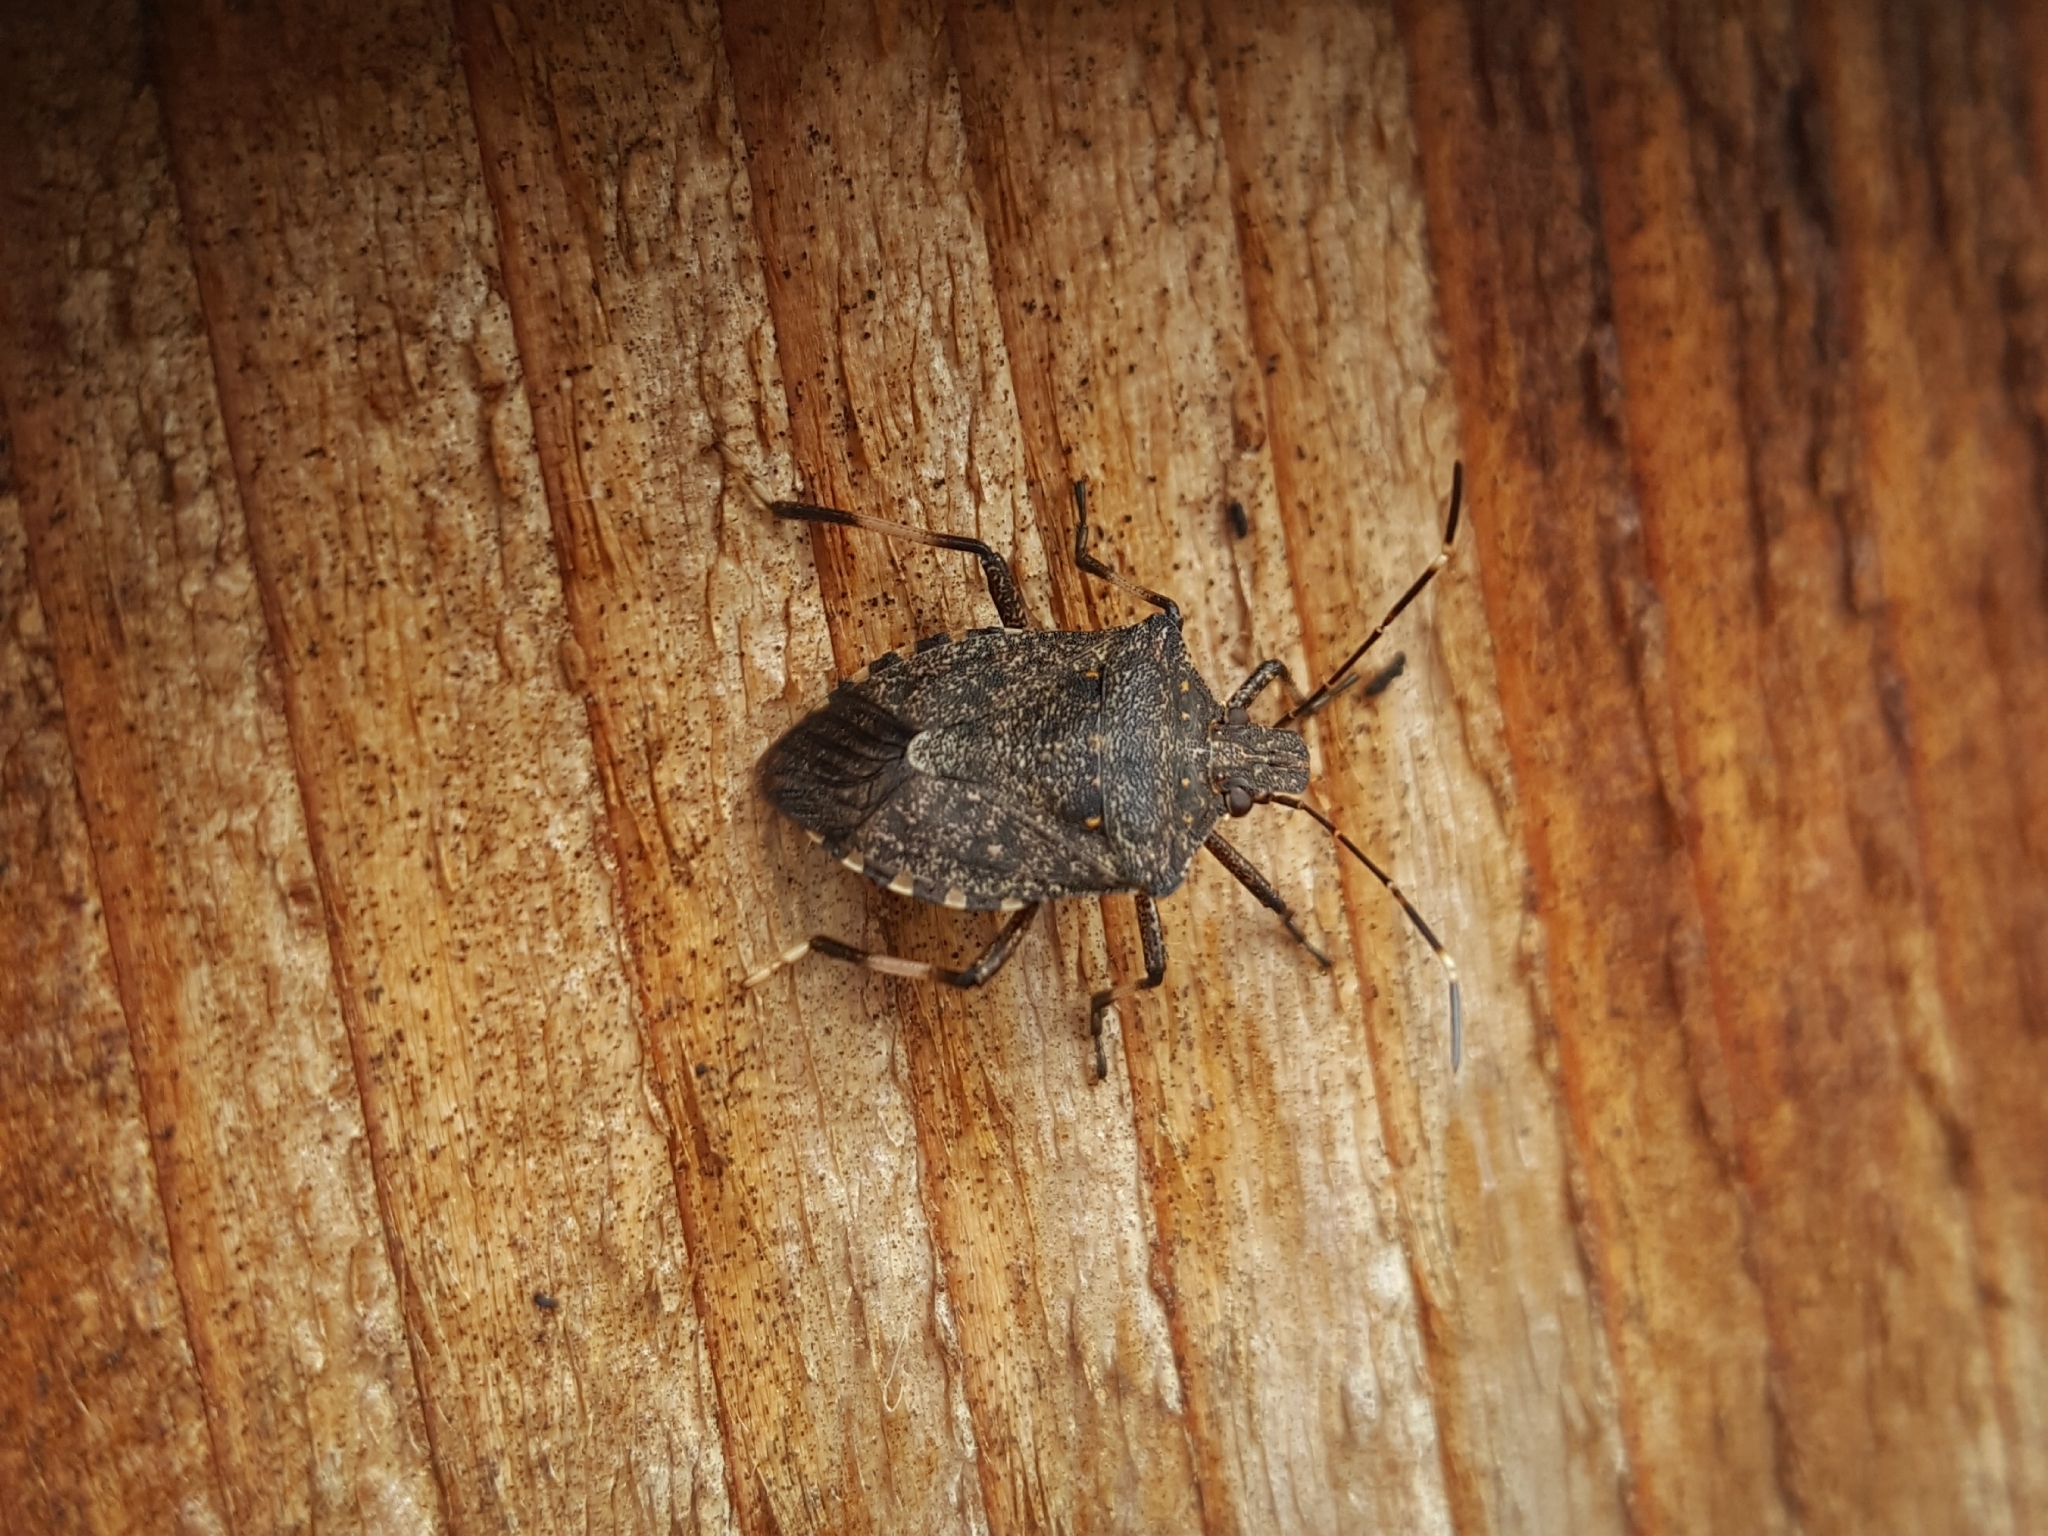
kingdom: Animalia
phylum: Arthropoda
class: Insecta
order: Hemiptera
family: Pentatomidae
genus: Halyomorpha
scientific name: Halyomorpha halys
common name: Brown marmorated stink bug
